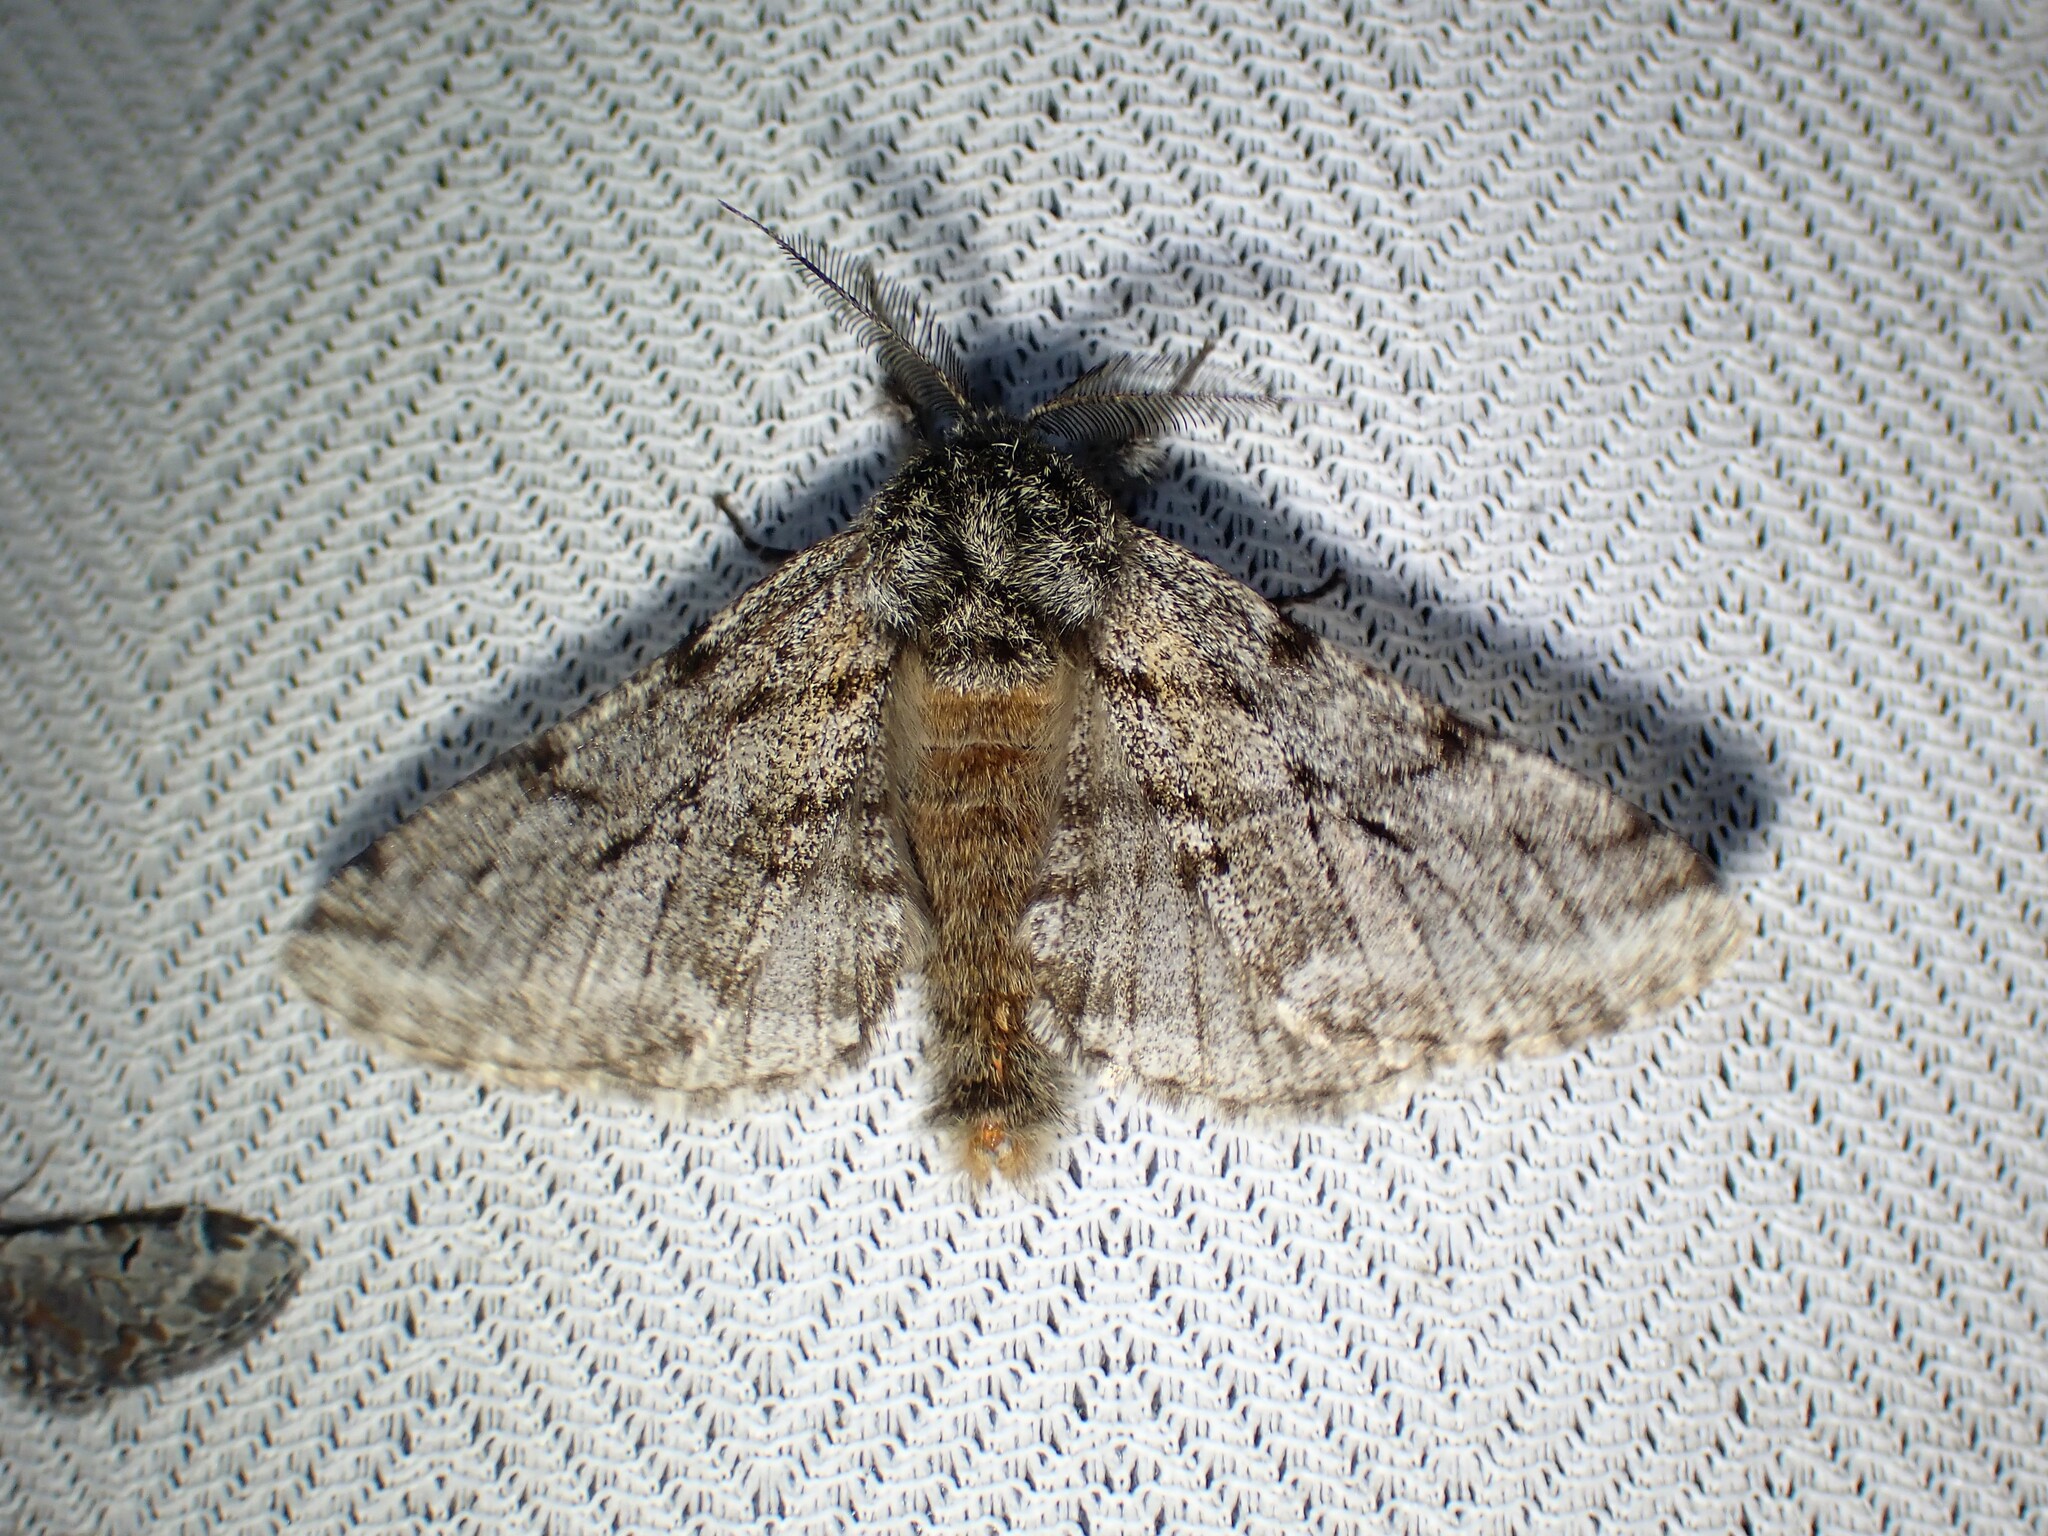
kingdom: Animalia
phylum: Arthropoda
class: Insecta
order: Lepidoptera
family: Geometridae
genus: Lycia
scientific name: Lycia ursaria
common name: Stout spanworm
